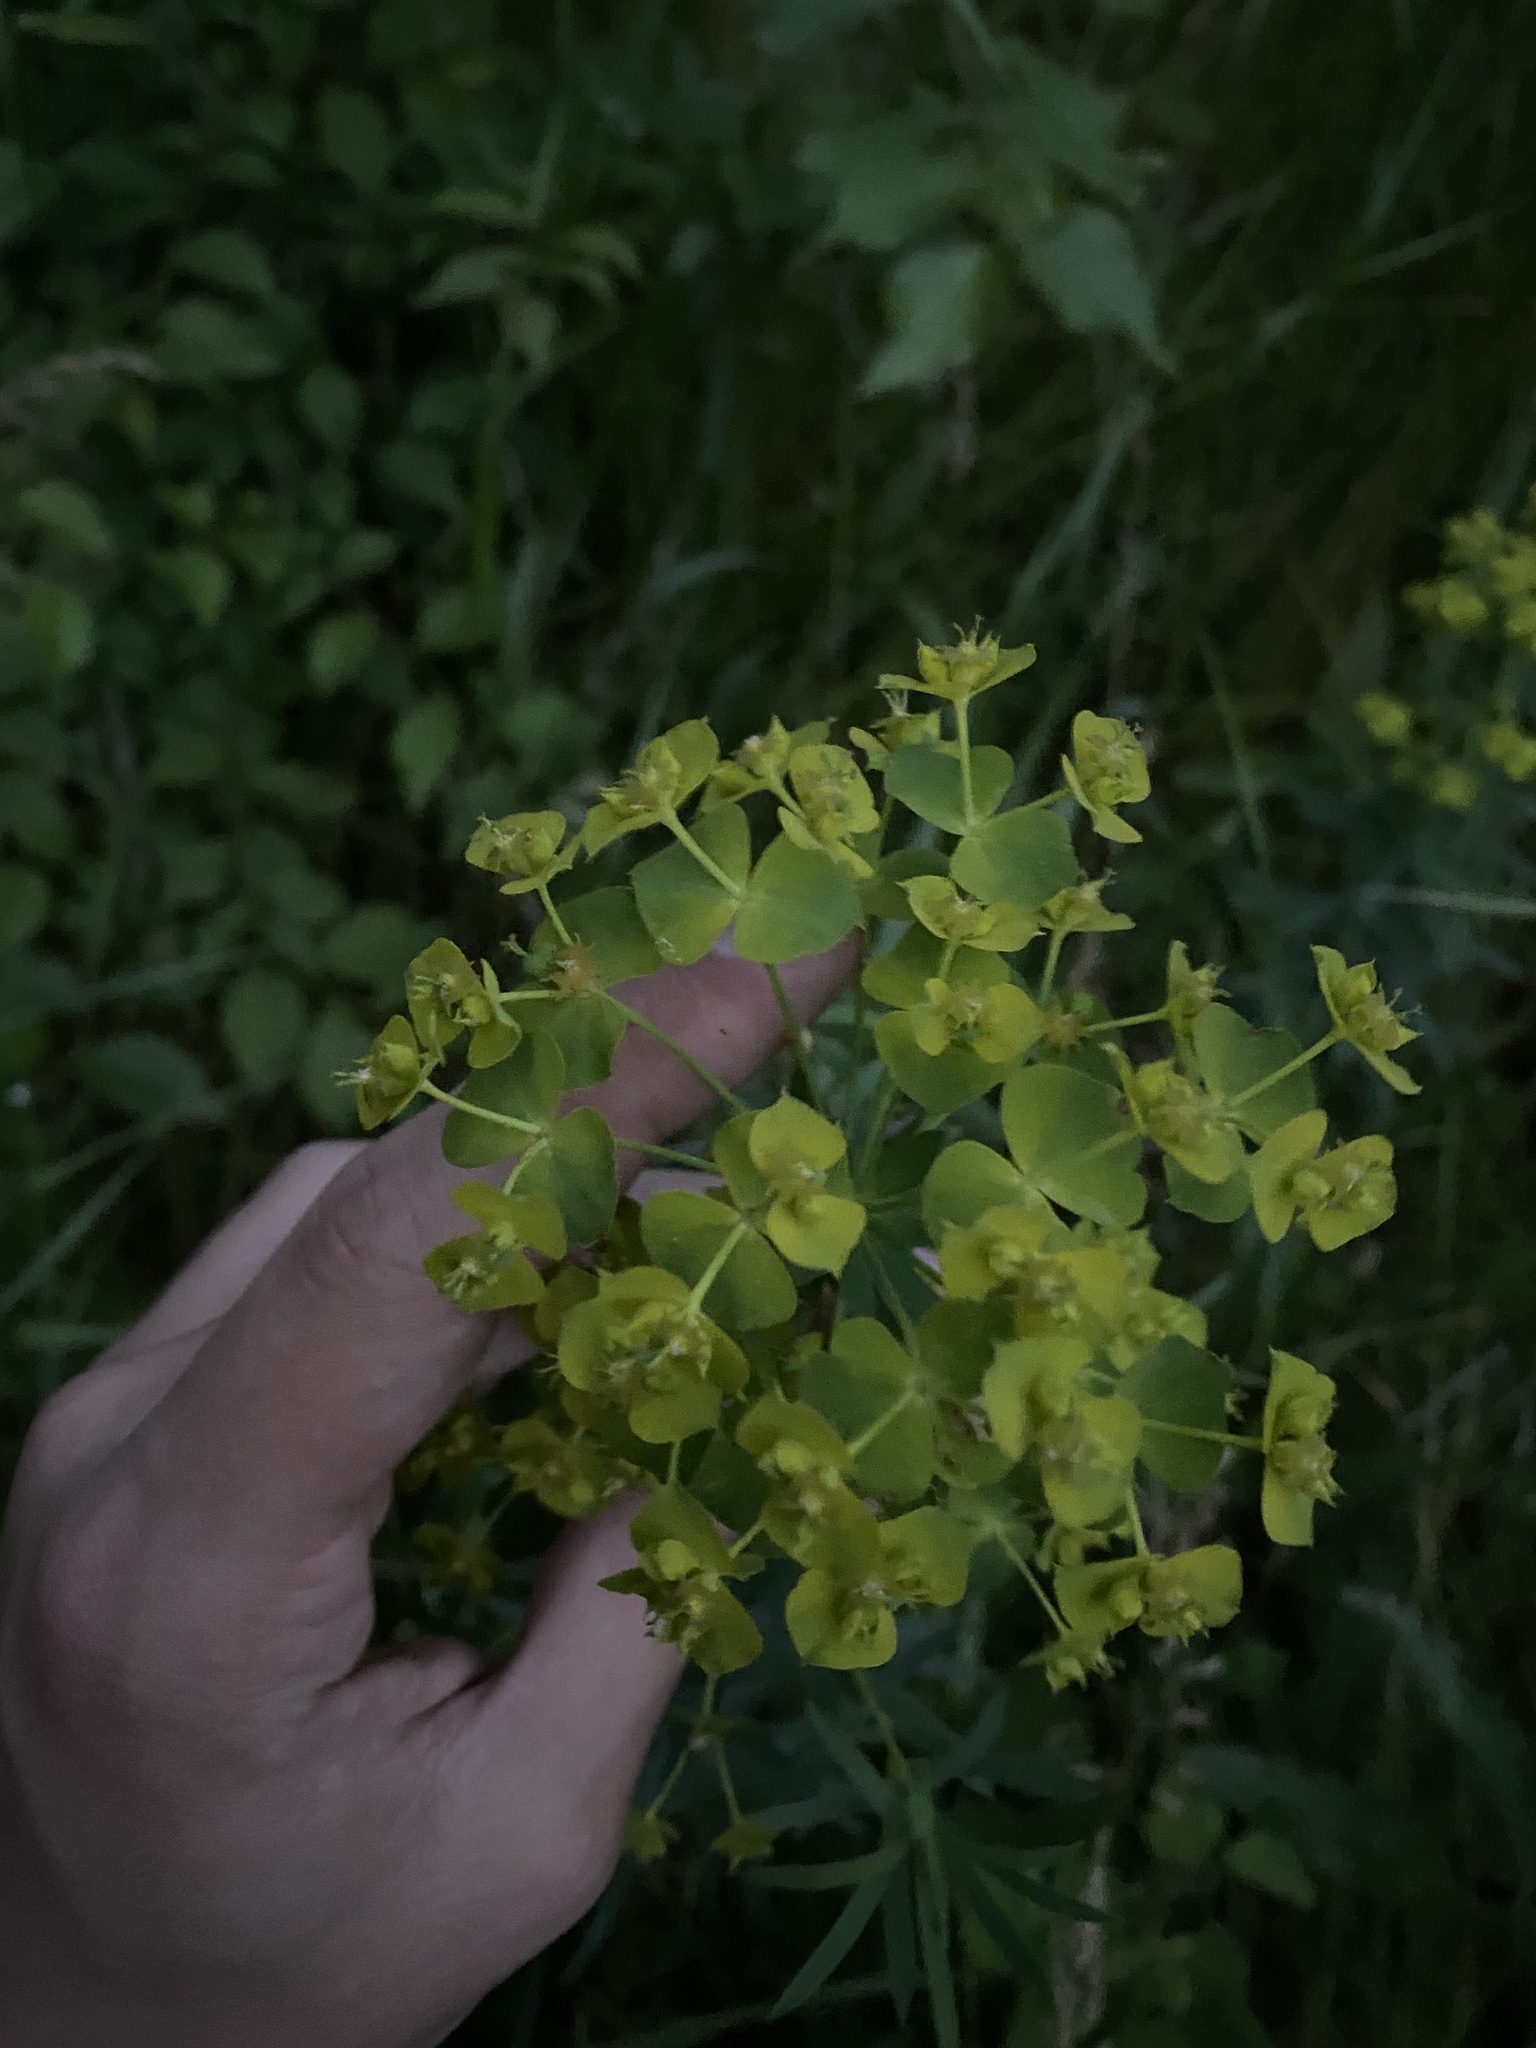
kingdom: Plantae
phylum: Tracheophyta
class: Magnoliopsida
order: Malpighiales
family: Euphorbiaceae
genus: Euphorbia
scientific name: Euphorbia virgata
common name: Leafy spurge
